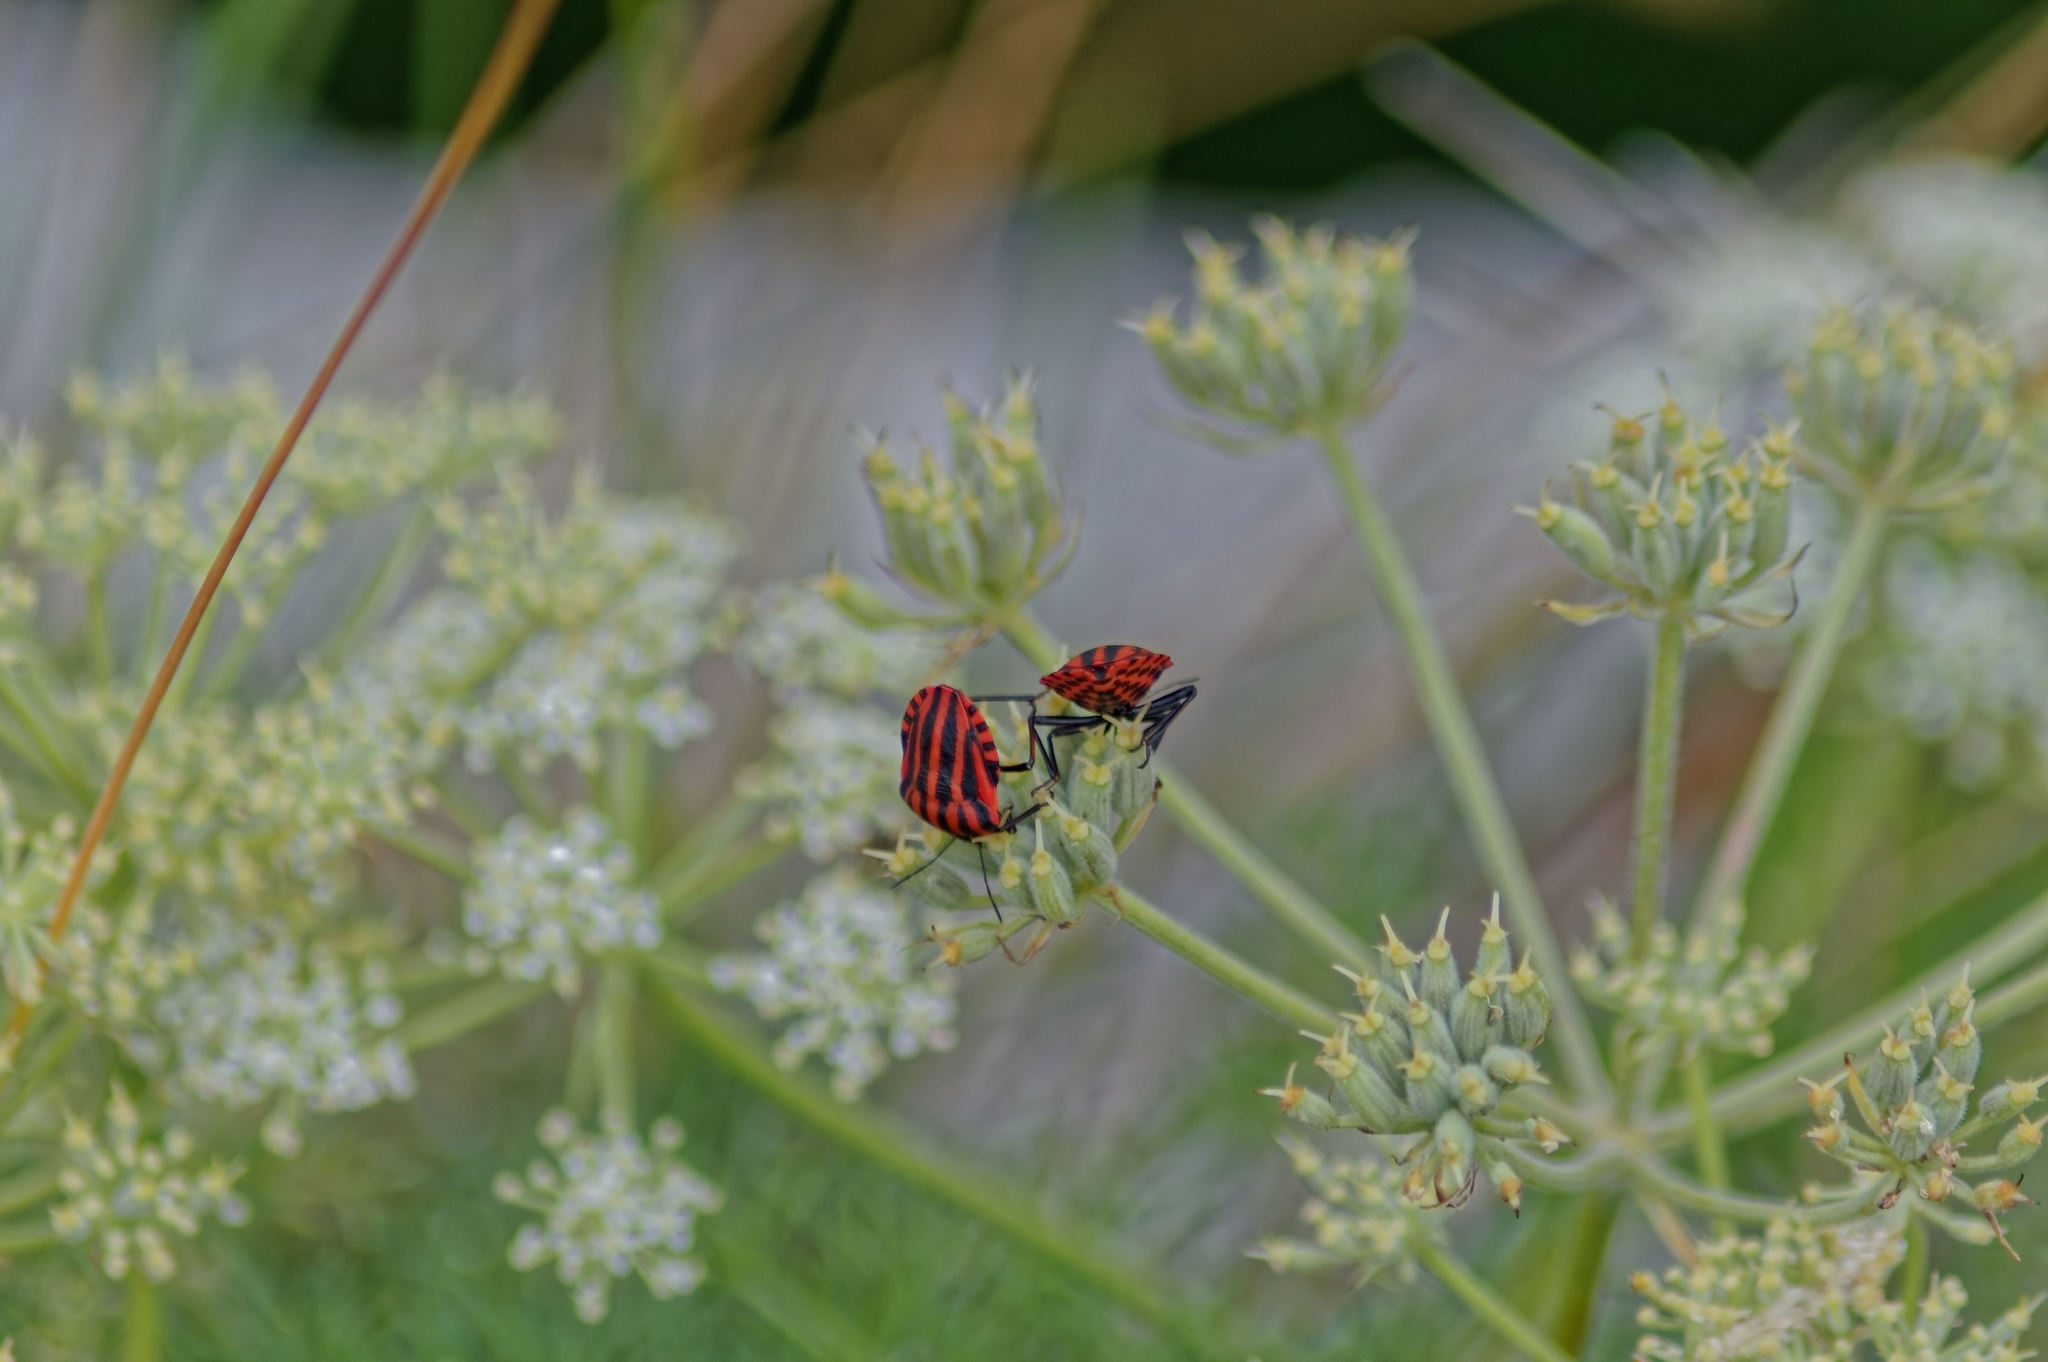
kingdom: Animalia
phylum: Arthropoda
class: Insecta
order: Hemiptera
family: Pentatomidae
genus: Graphosoma
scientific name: Graphosoma italicum
